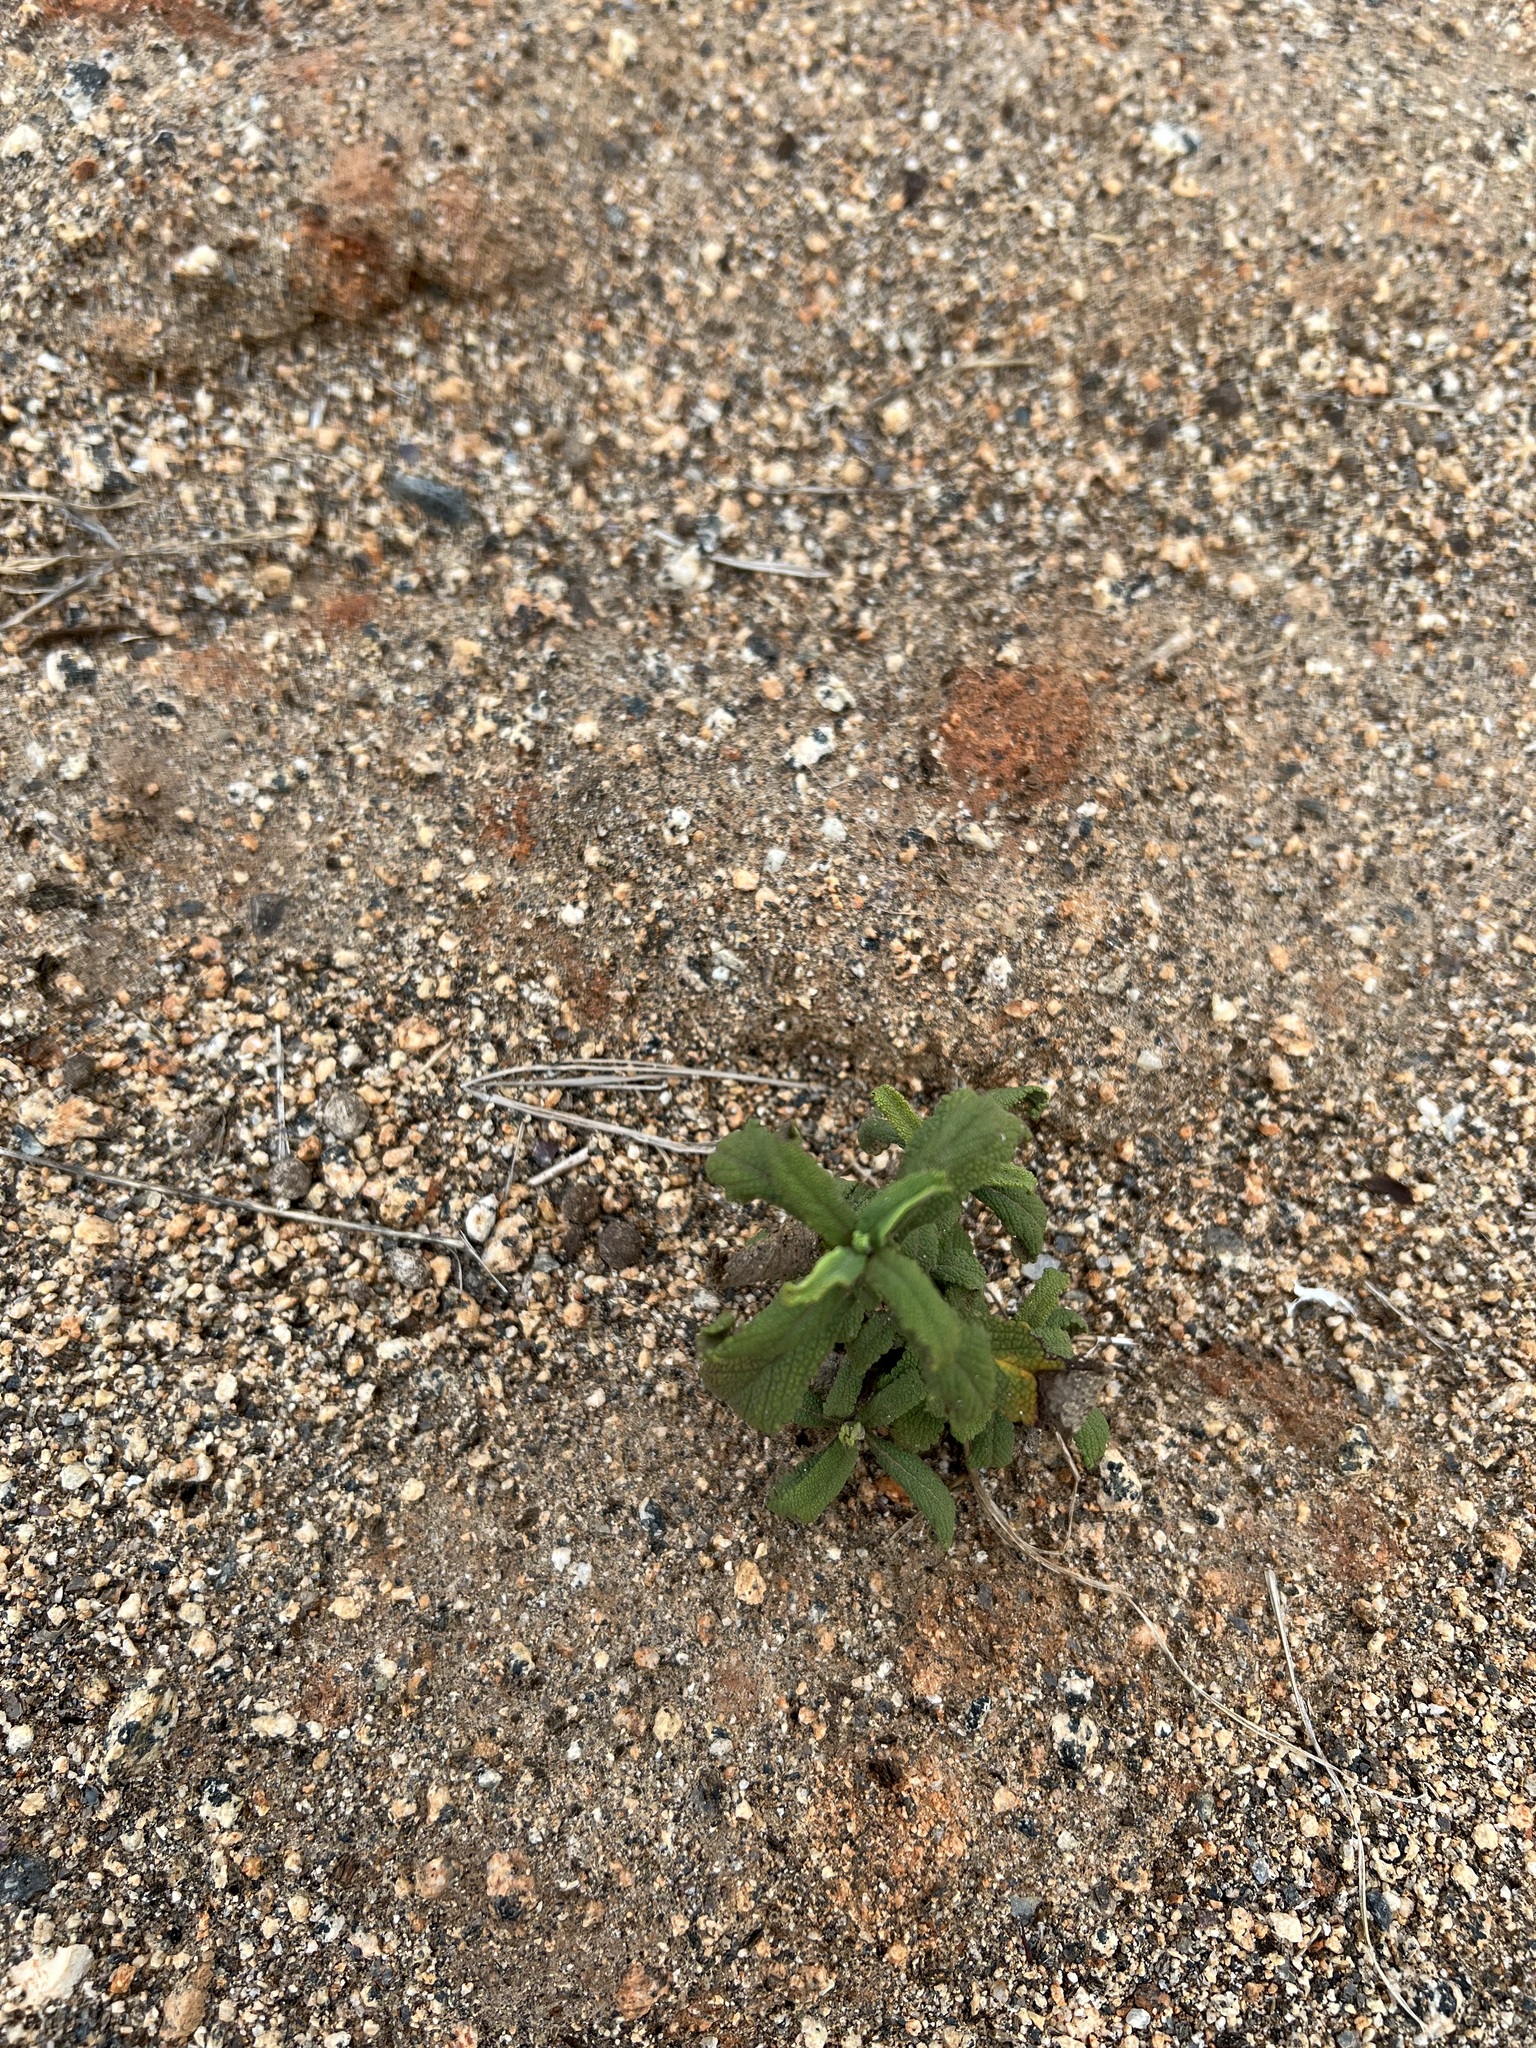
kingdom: Plantae
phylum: Tracheophyta
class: Magnoliopsida
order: Lamiales
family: Lamiaceae
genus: Salvia
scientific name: Salvia mellifera
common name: Black sage
